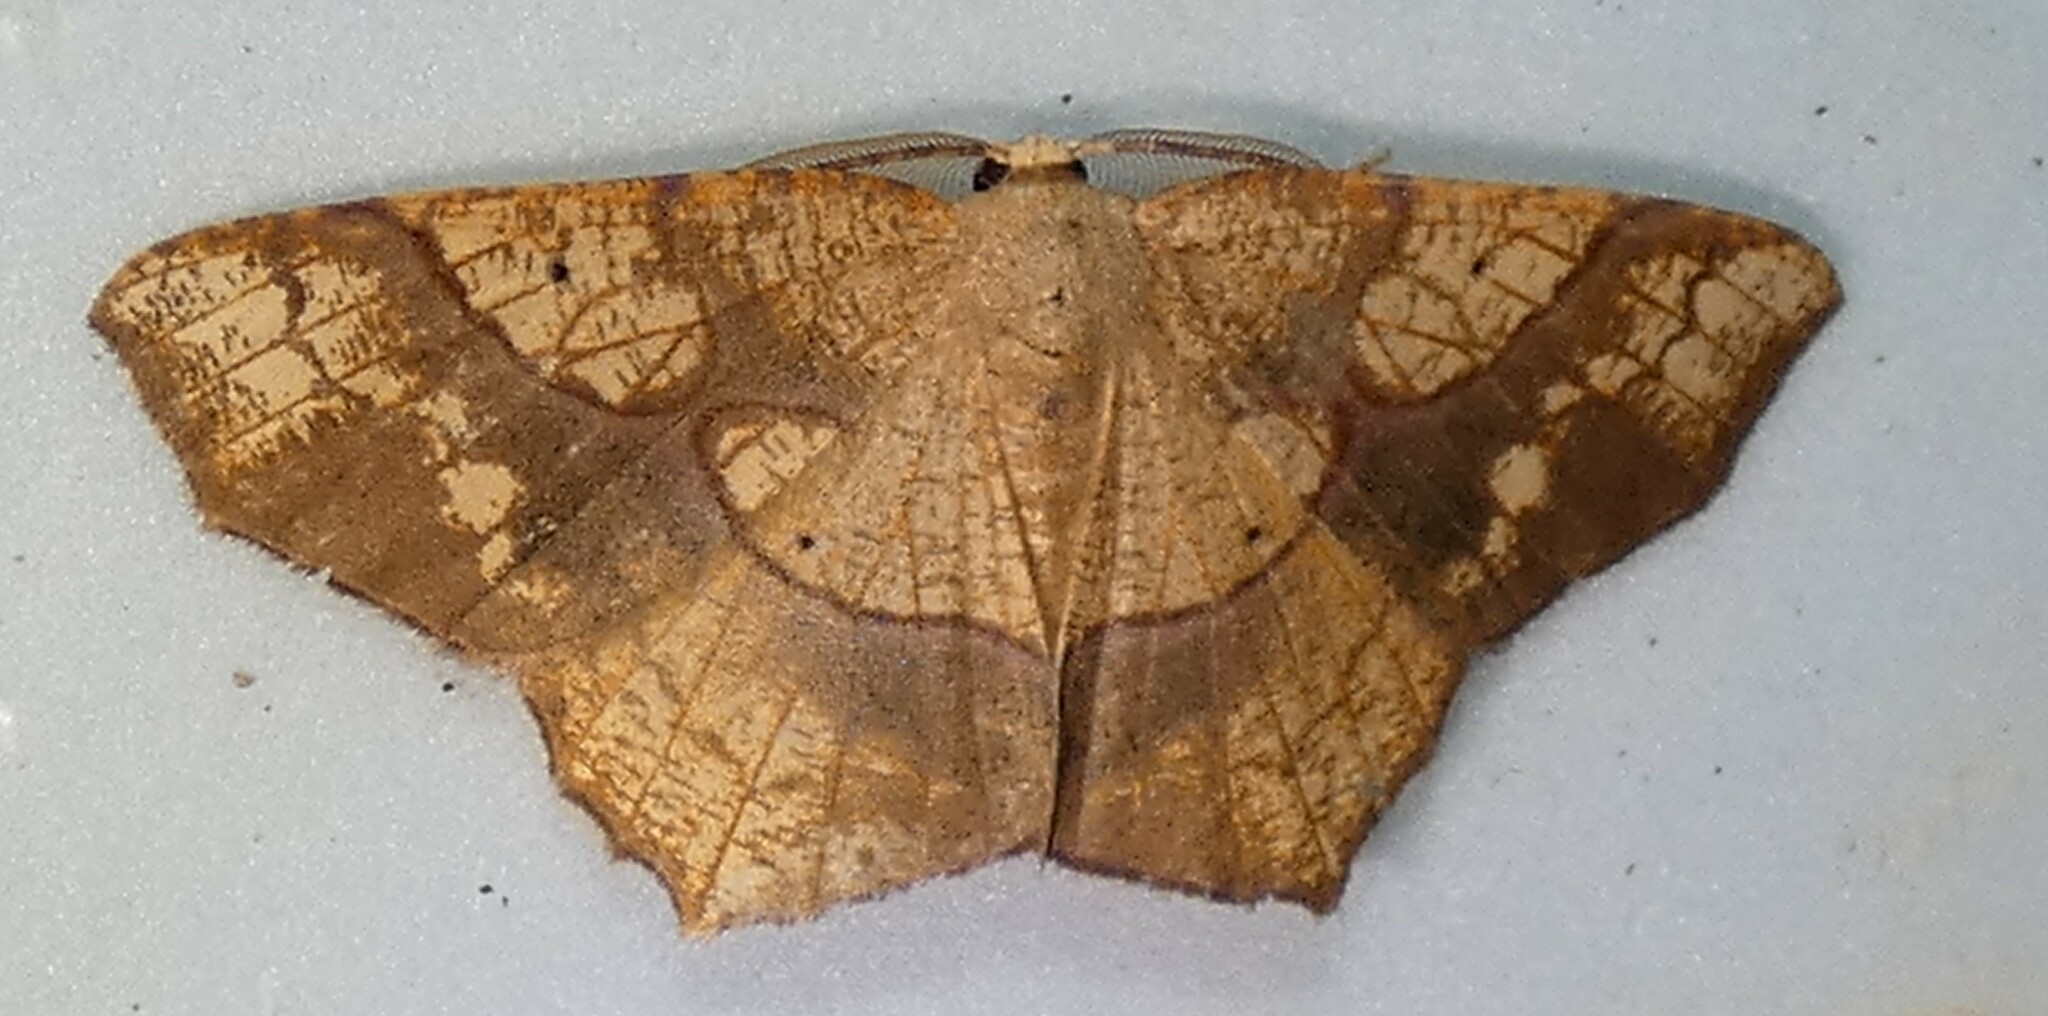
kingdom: Animalia
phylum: Arthropoda
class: Insecta
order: Lepidoptera
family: Geometridae
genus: Besma
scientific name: Besma quercivoraria
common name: Oak besma
